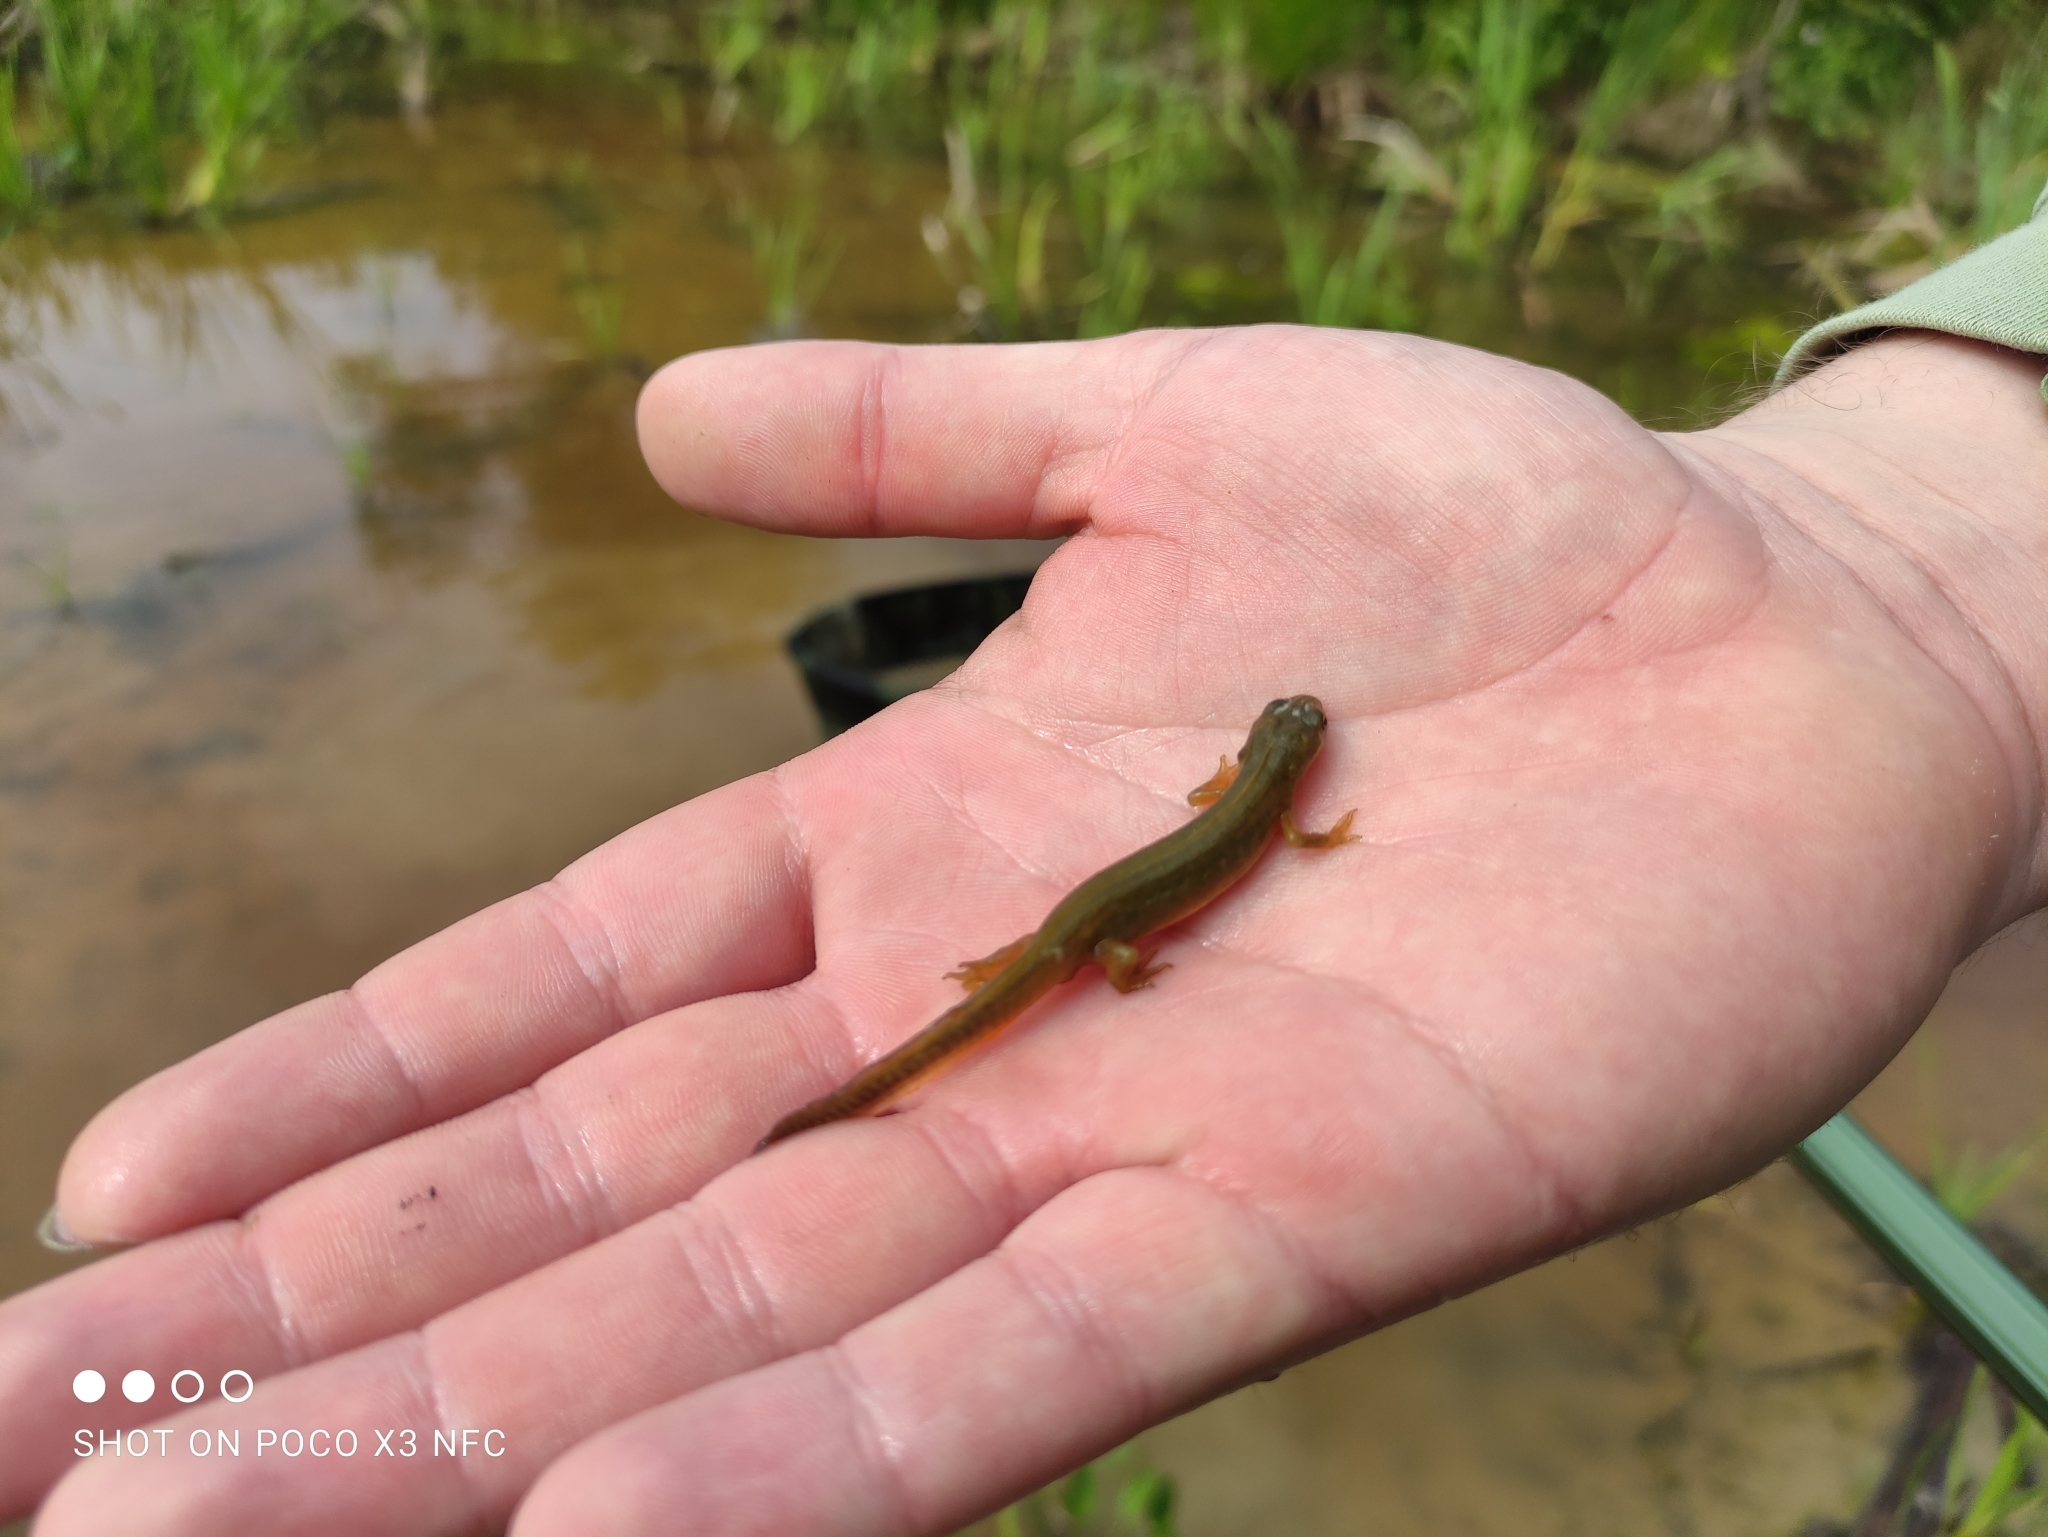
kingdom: Animalia
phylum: Chordata
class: Amphibia
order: Caudata
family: Salamandridae
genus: Lissotriton
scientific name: Lissotriton vulgaris
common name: Smooth newt
